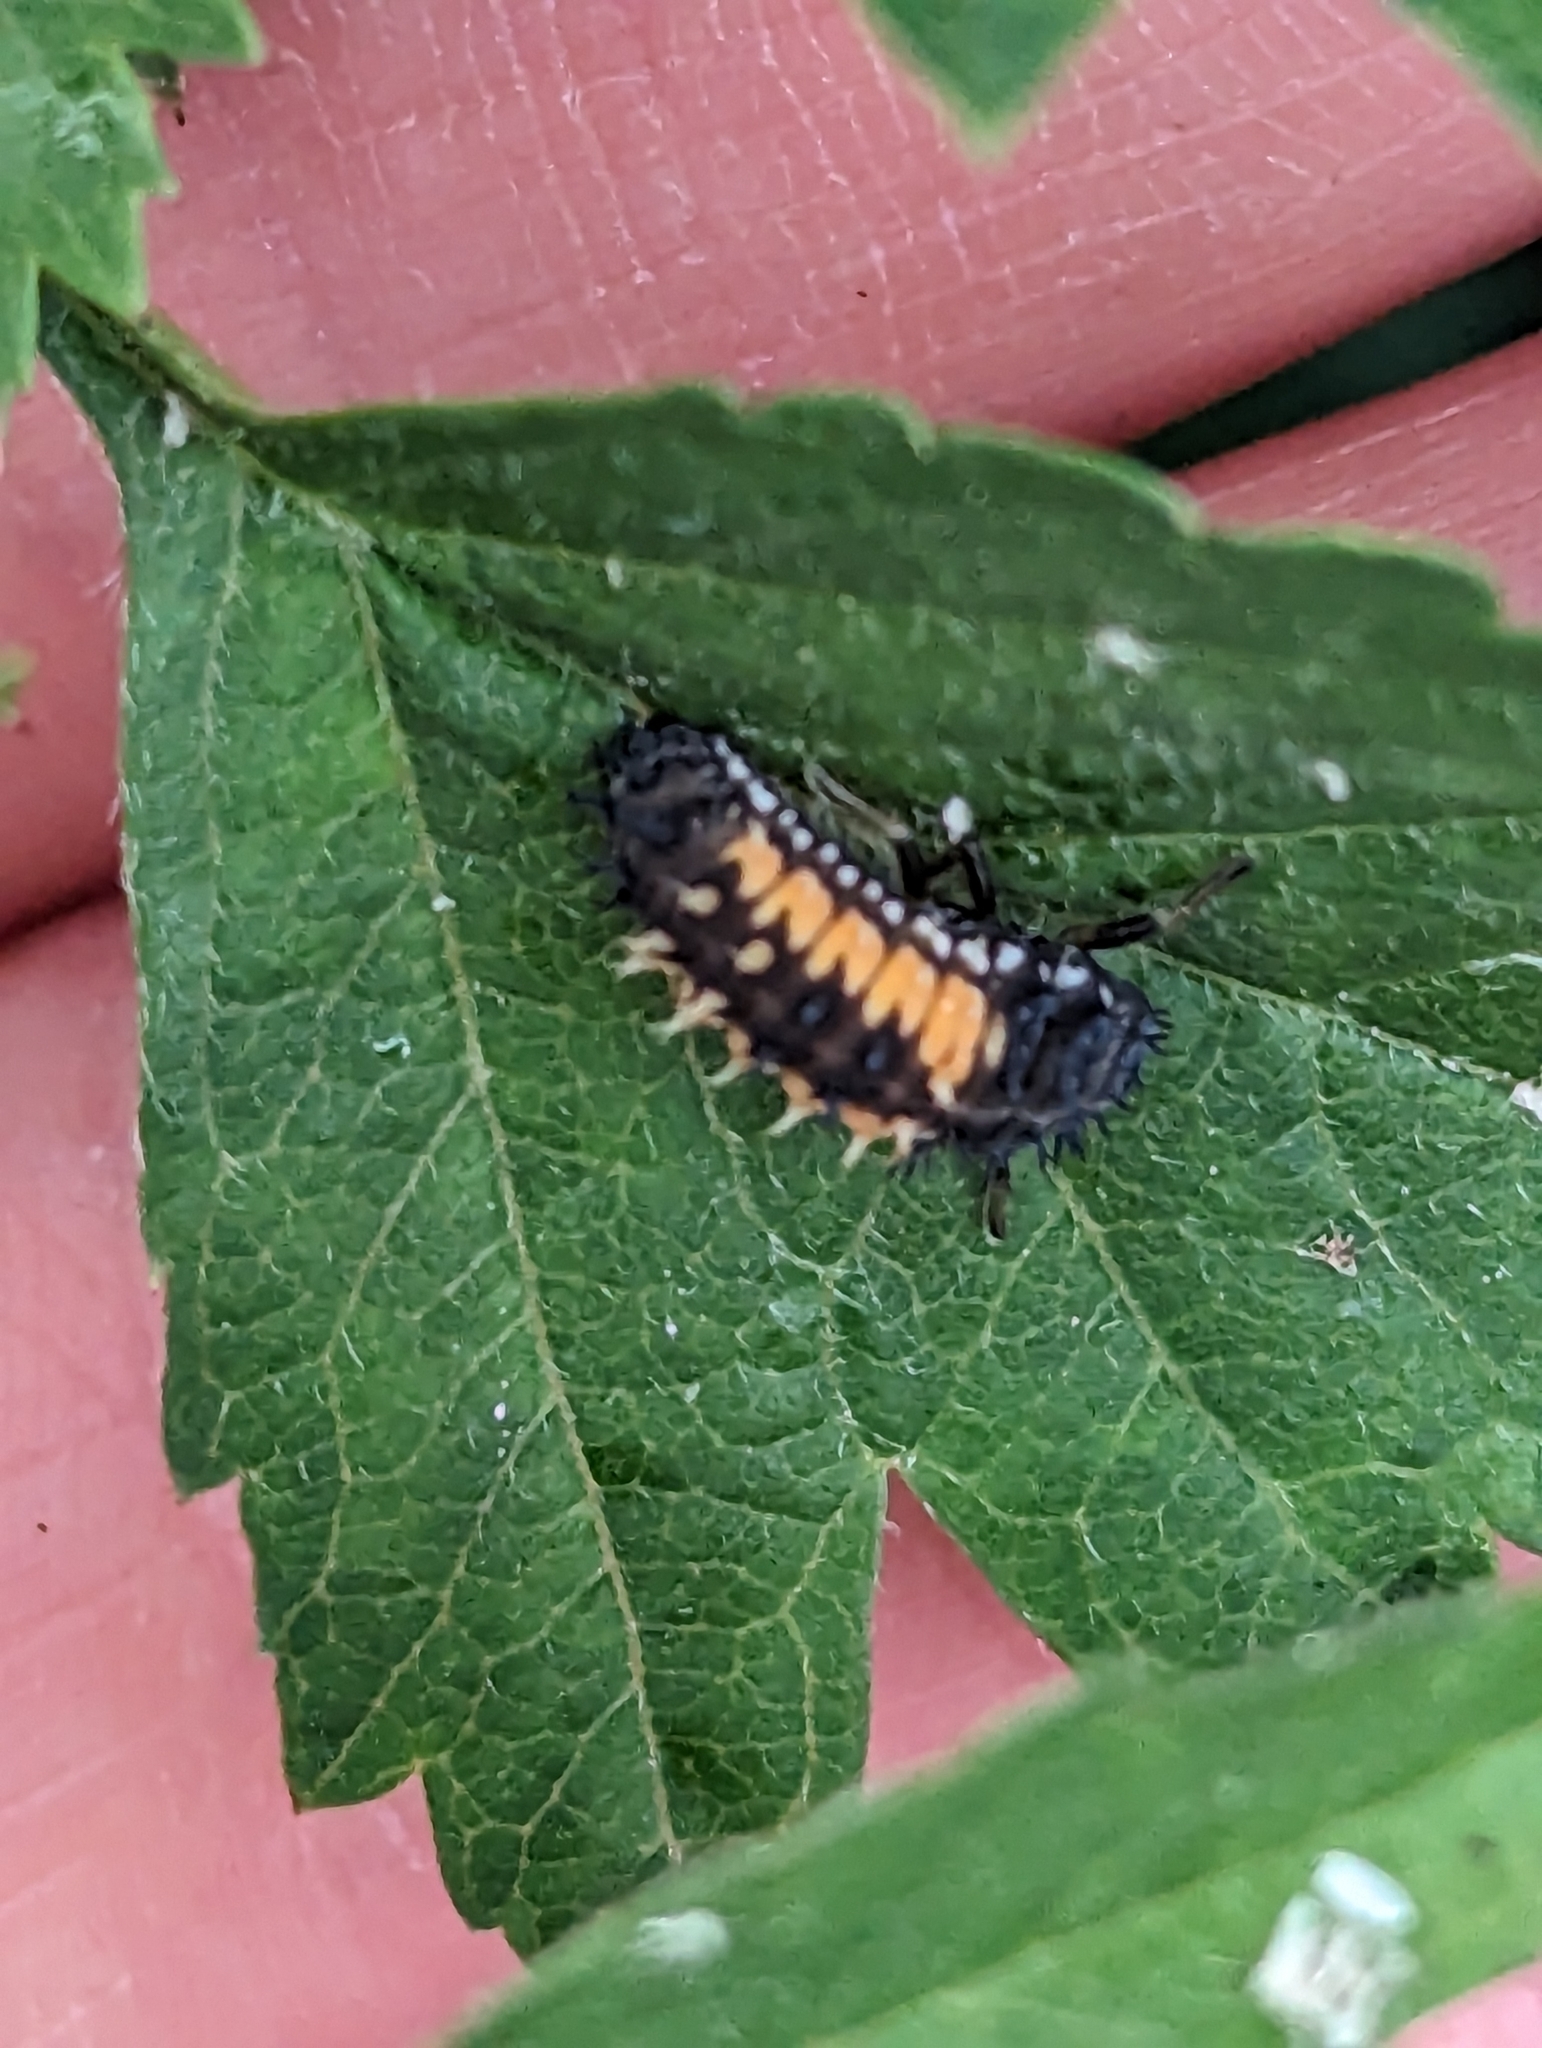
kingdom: Animalia
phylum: Arthropoda
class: Insecta
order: Coleoptera
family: Coccinellidae
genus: Harmonia
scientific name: Harmonia axyridis
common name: Harlequin ladybird
